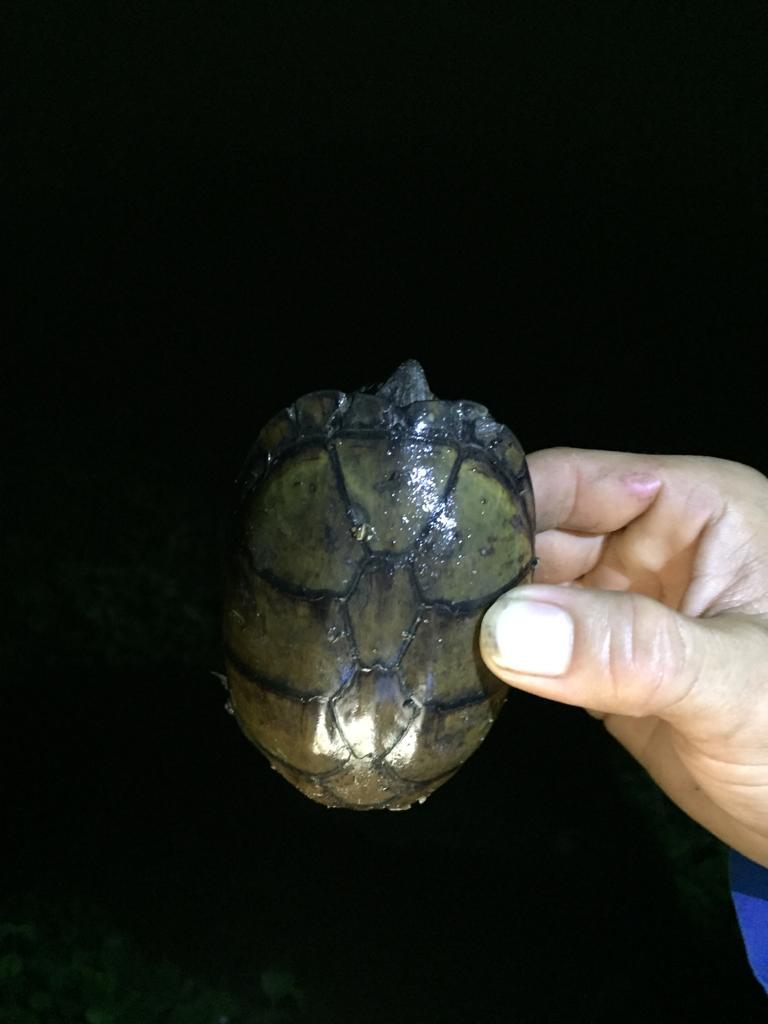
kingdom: Animalia
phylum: Chordata
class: Testudines
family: Kinosternidae
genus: Kinosternon
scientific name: Kinosternon scorpioides
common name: Scorpion mud turtle
